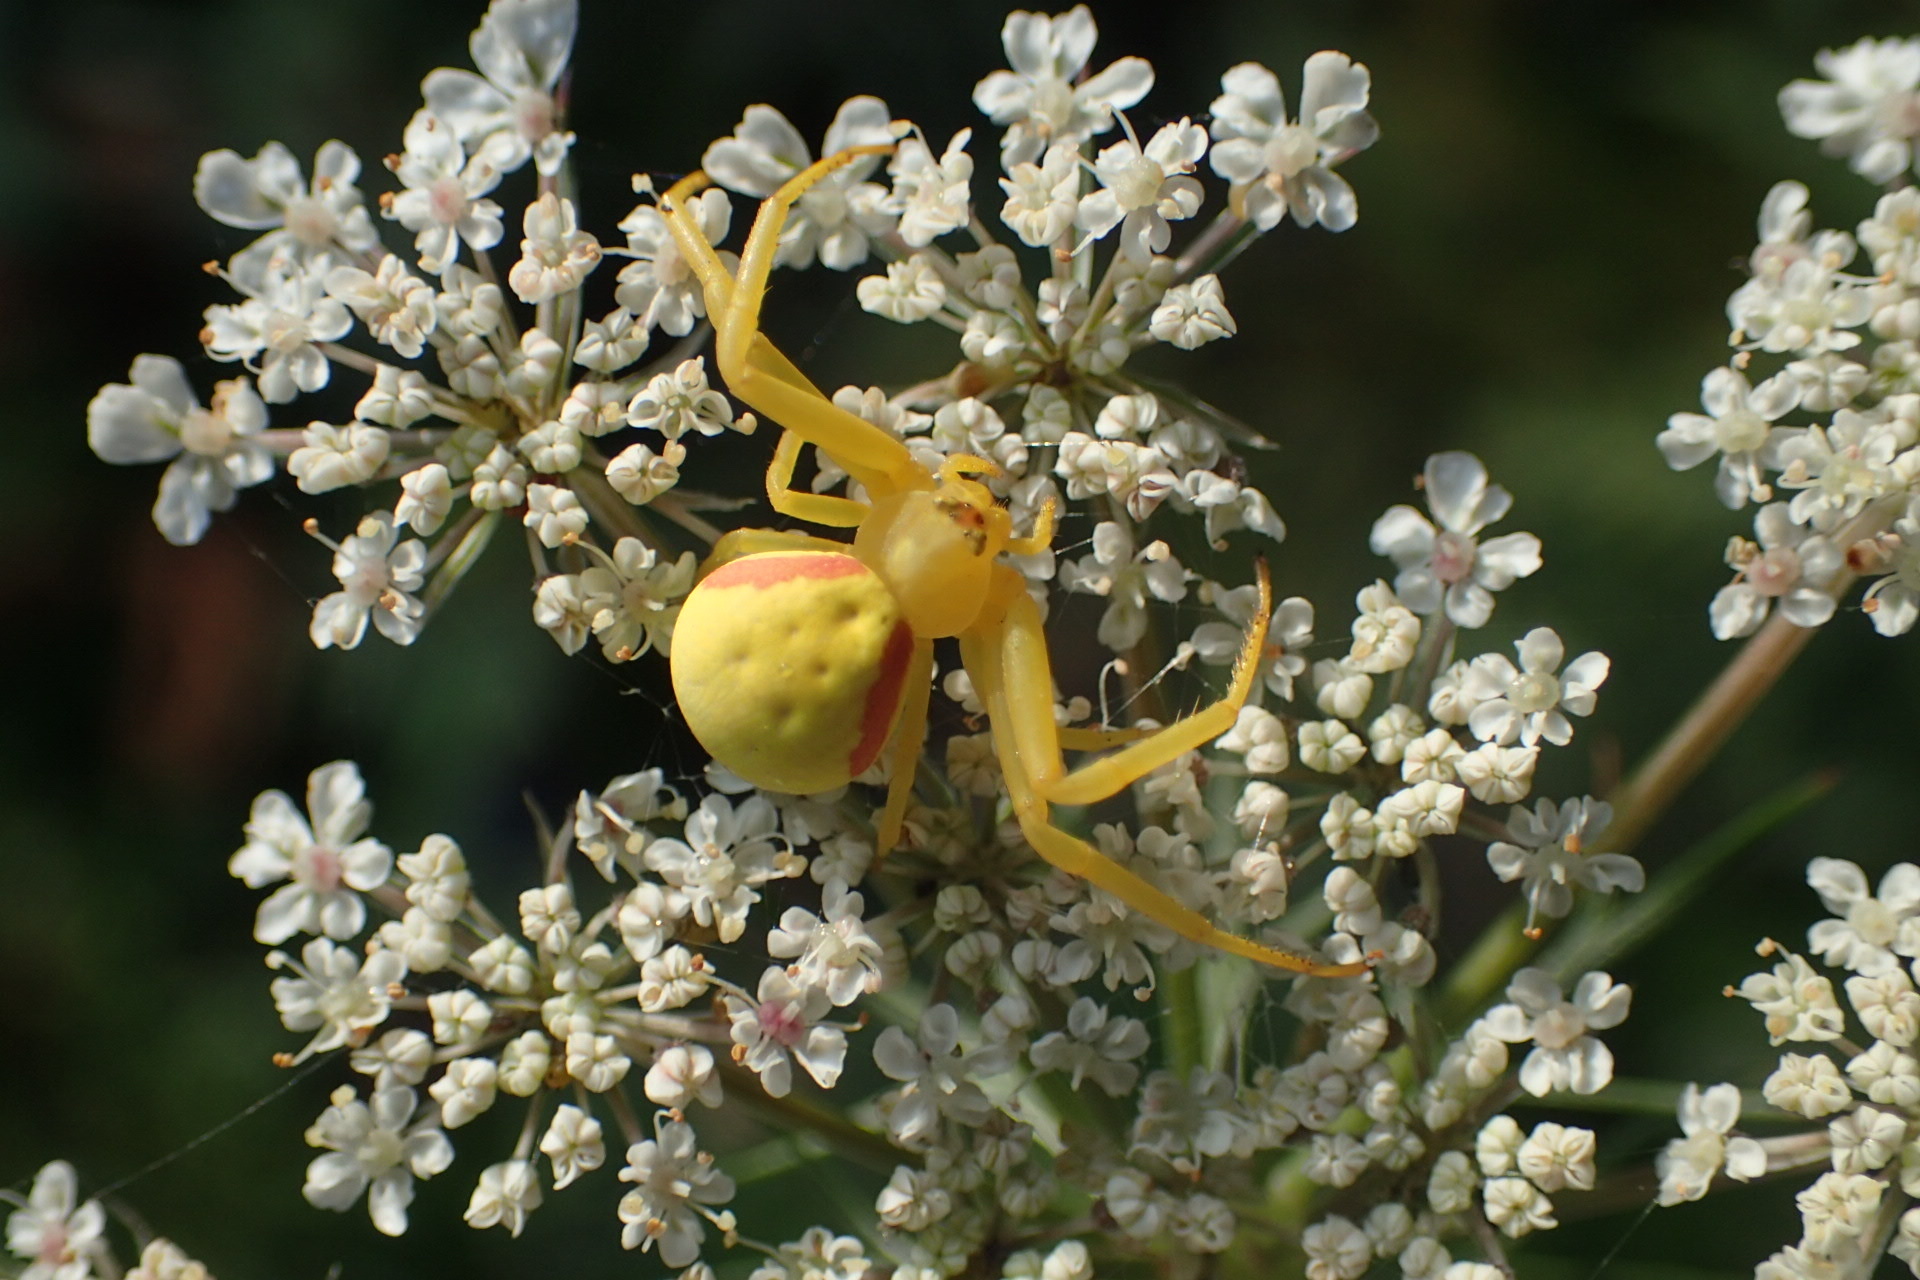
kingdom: Animalia
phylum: Arthropoda
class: Arachnida
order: Araneae
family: Thomisidae
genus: Misumena
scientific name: Misumena vatia
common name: Goldenrod crab spider
